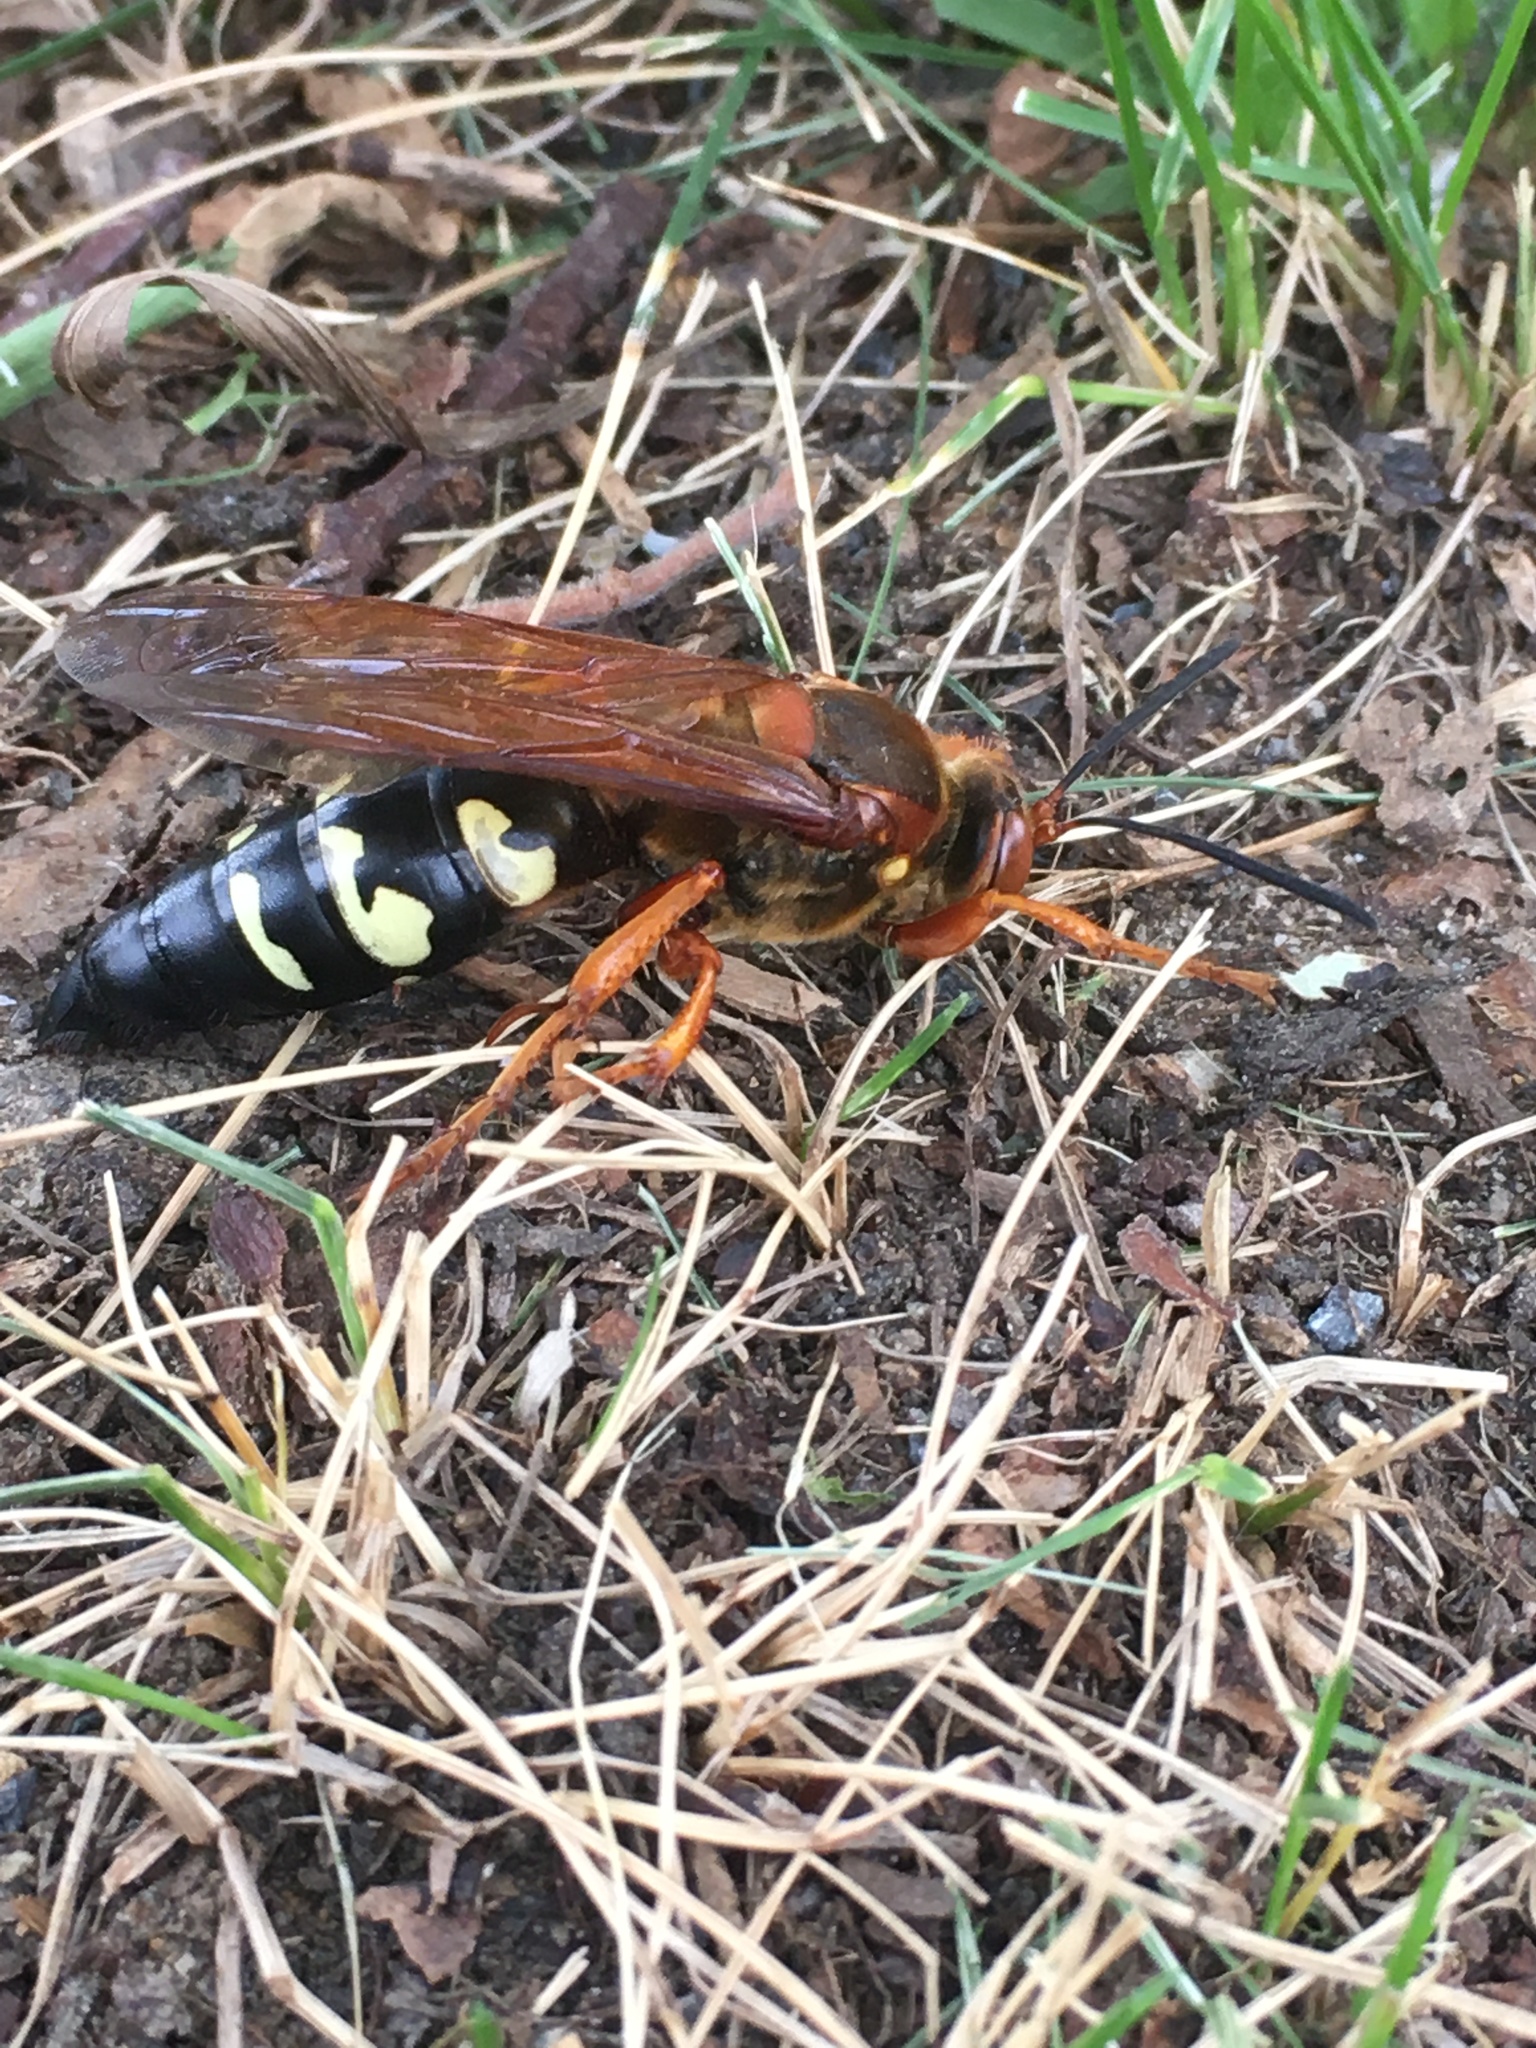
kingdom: Animalia
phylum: Arthropoda
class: Insecta
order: Hymenoptera
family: Crabronidae
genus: Sphecius
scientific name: Sphecius speciosus
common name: Cicada killer
